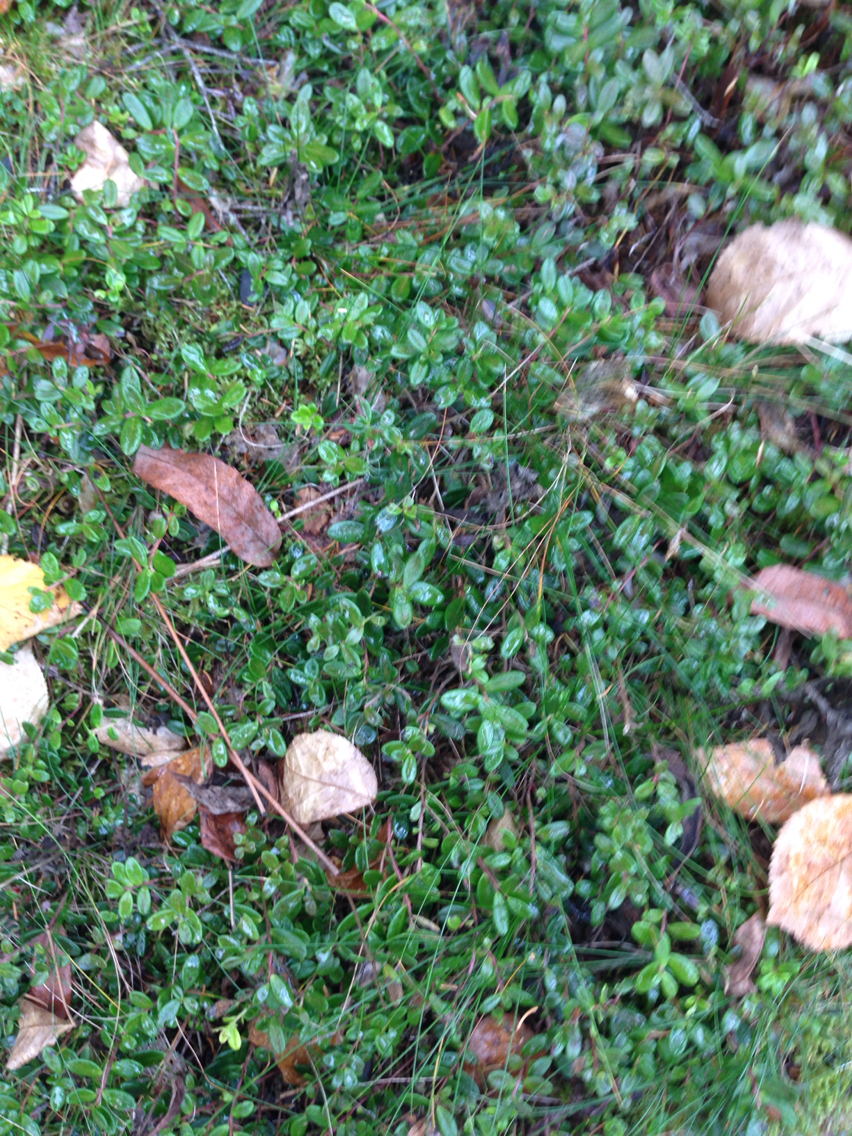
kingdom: Plantae
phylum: Tracheophyta
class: Magnoliopsida
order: Ericales
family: Ericaceae
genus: Vaccinium
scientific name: Vaccinium macrocarpon
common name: American cranberry
